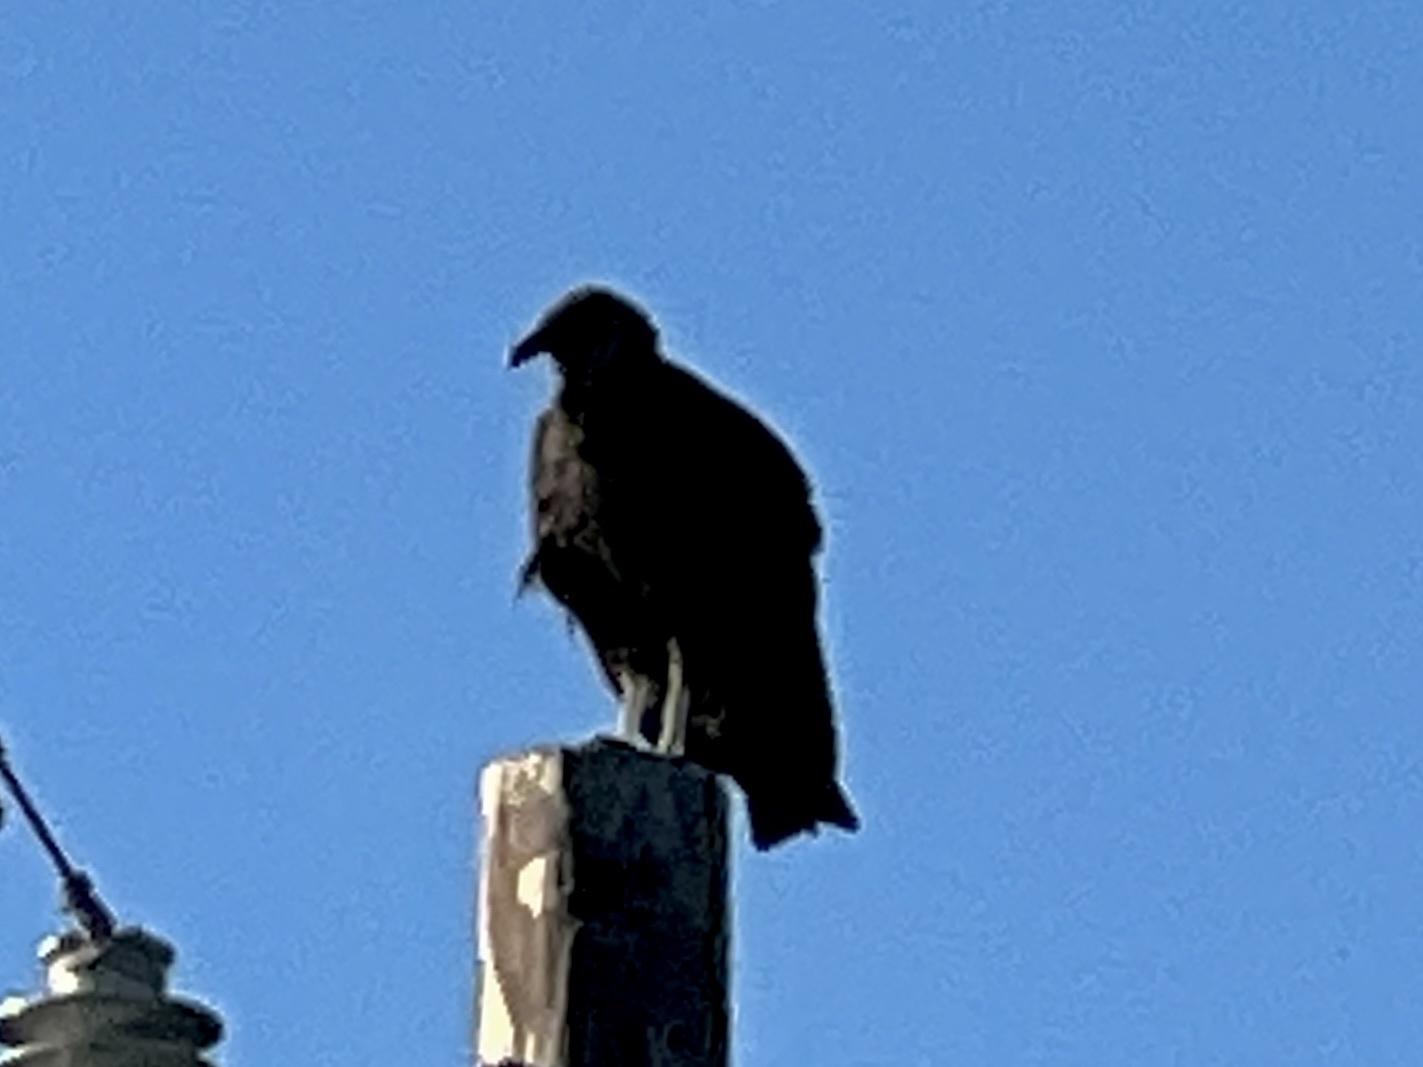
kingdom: Animalia
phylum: Chordata
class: Aves
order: Accipitriformes
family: Cathartidae
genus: Coragyps
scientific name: Coragyps atratus
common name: Black vulture
